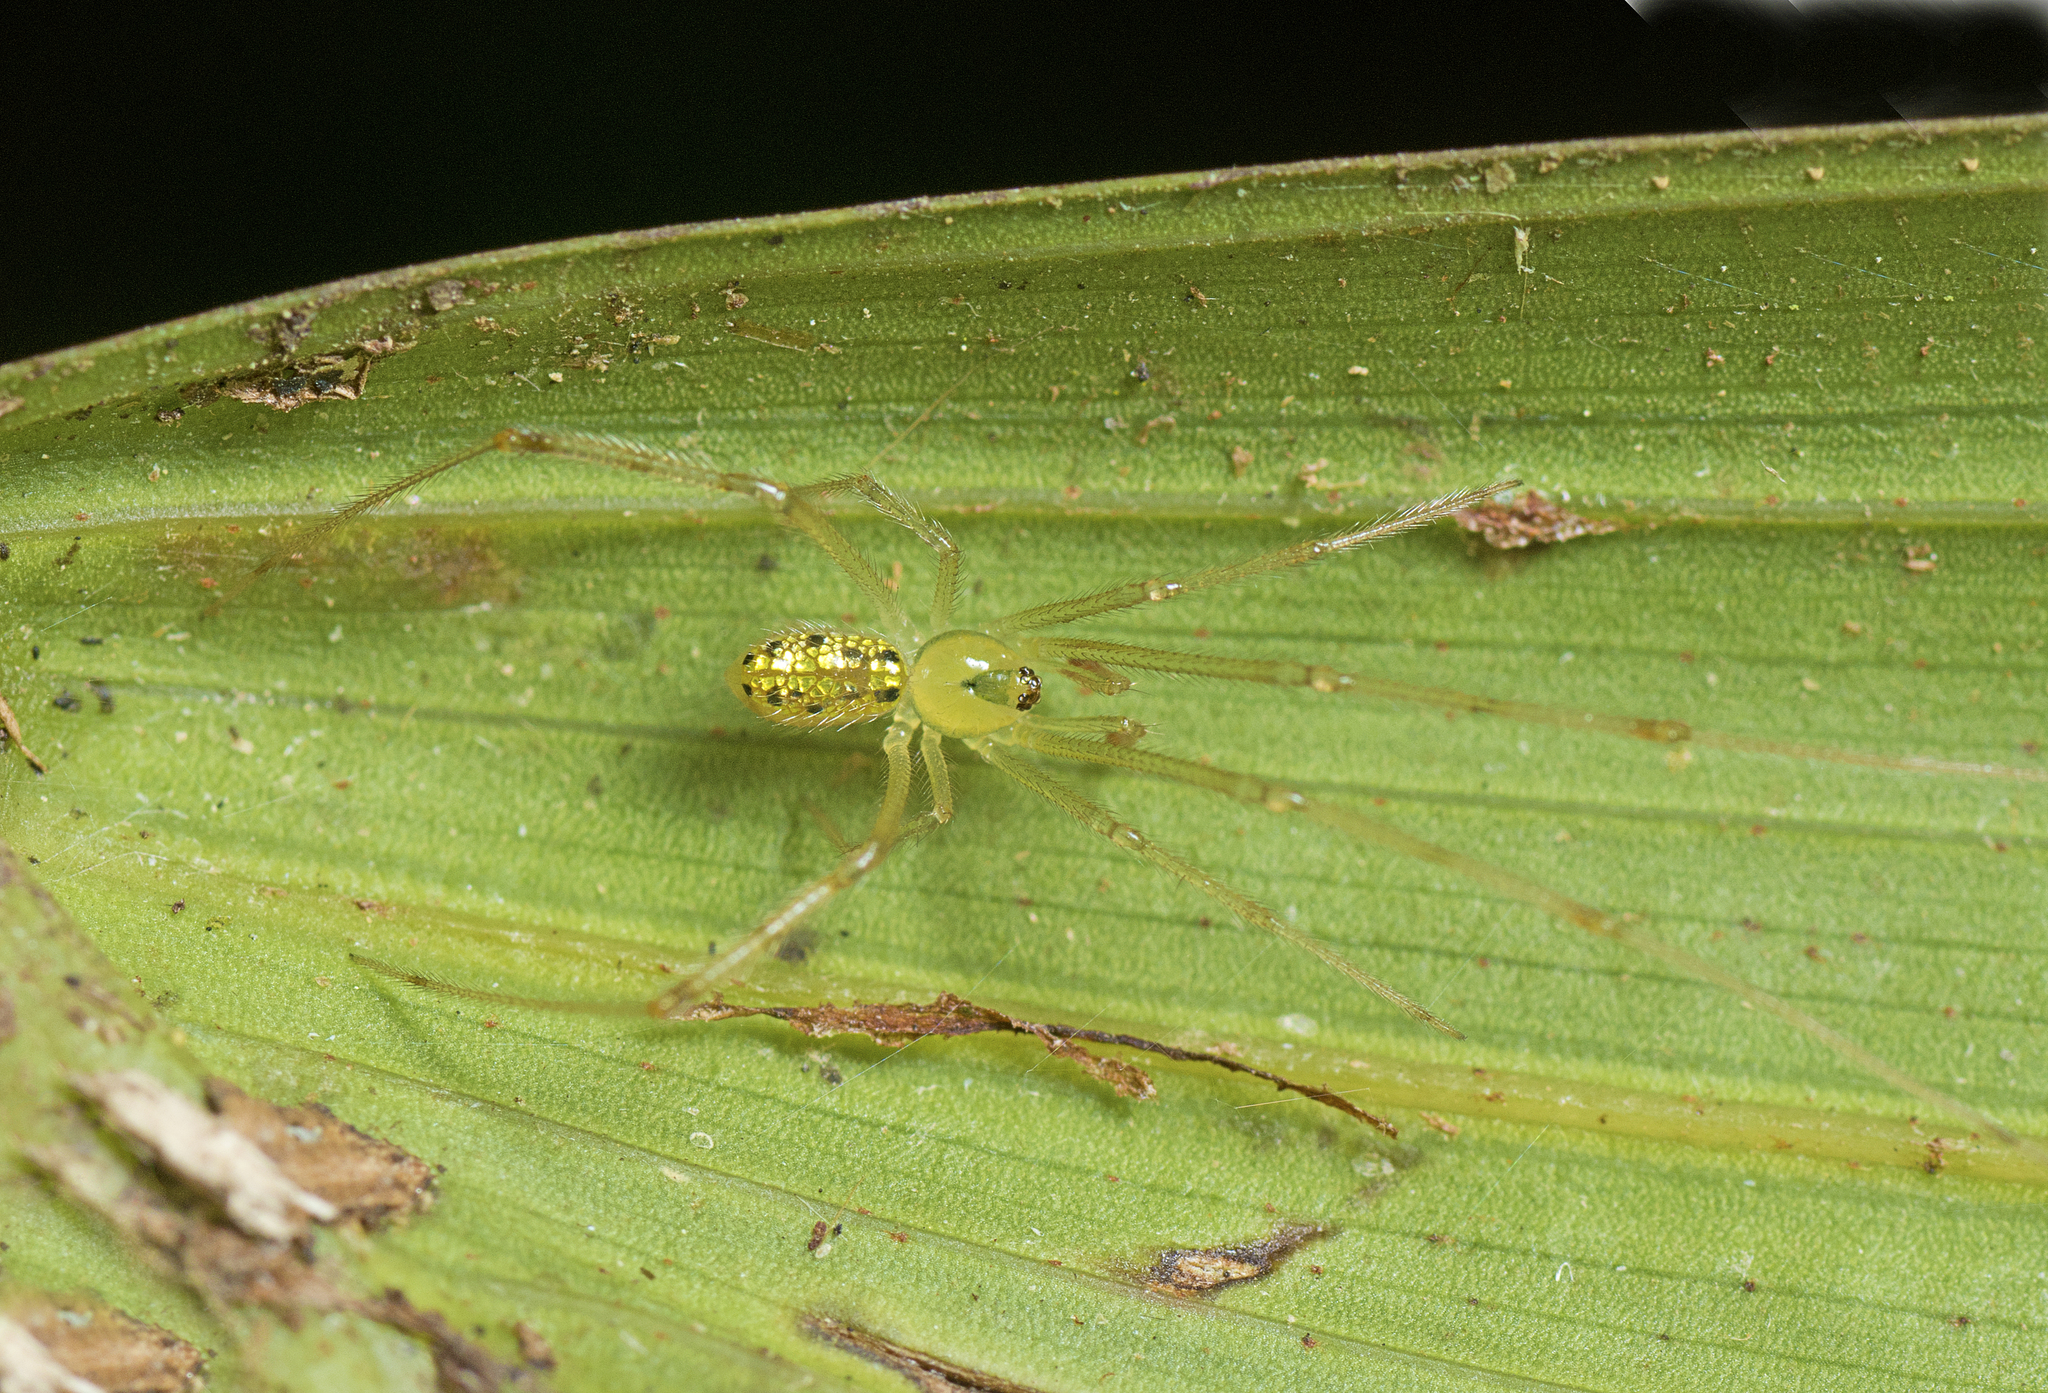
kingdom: Animalia
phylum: Arthropoda
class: Arachnida
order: Araneae
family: Theridiidae
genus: Thwaitesia
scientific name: Thwaitesia nigronodosa
